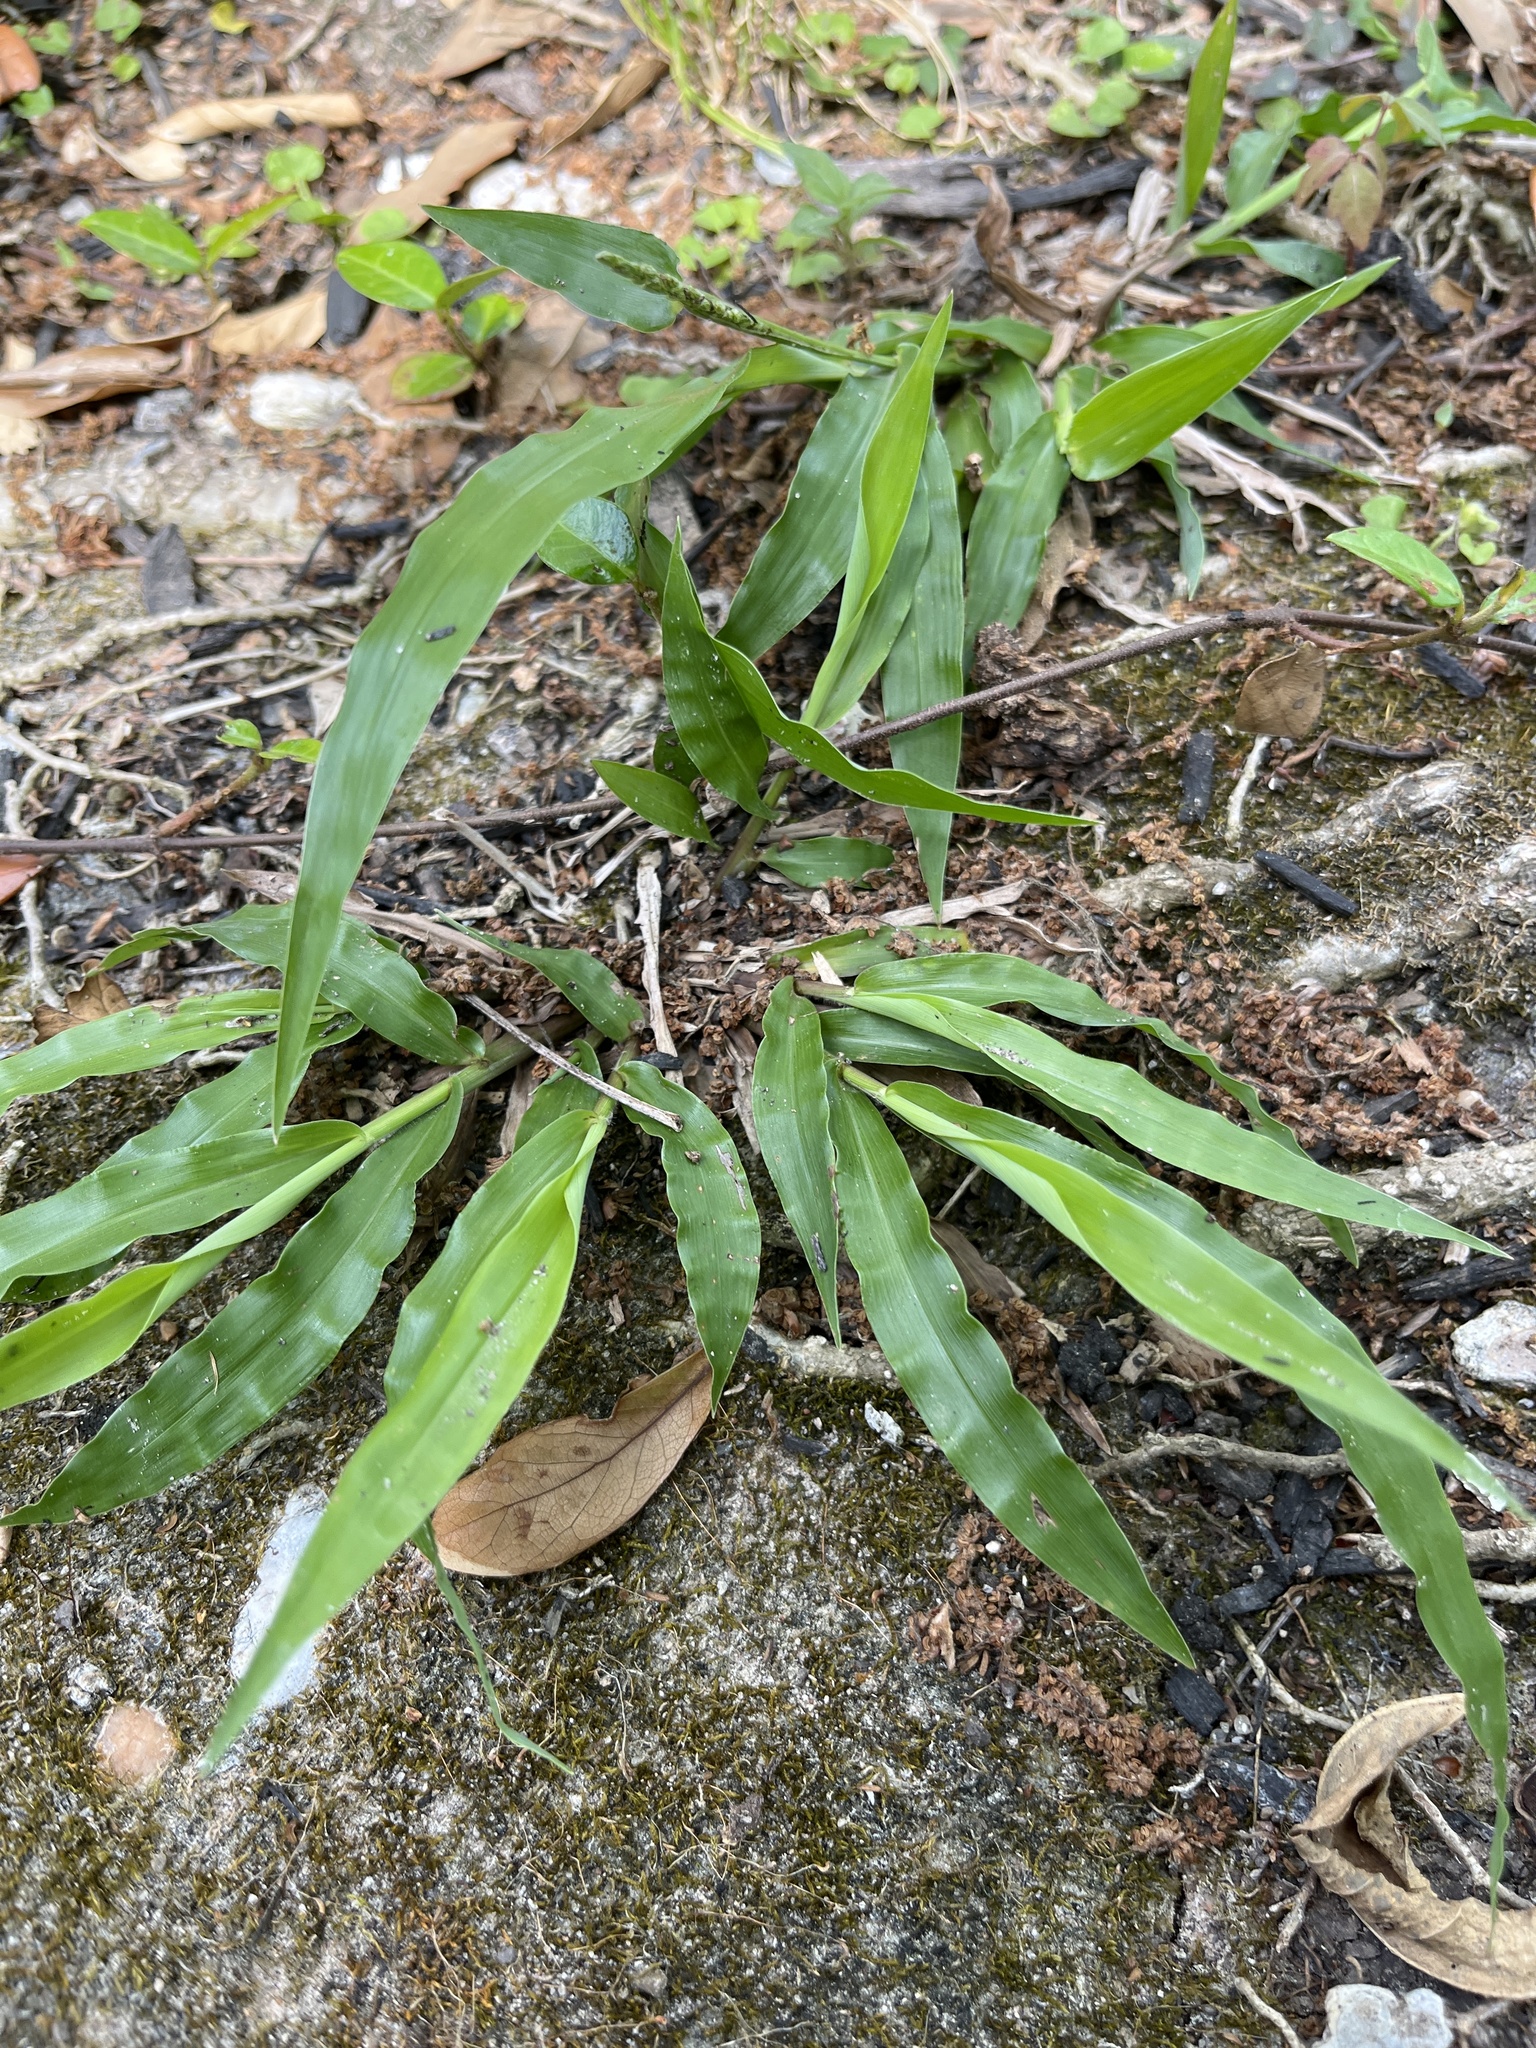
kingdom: Plantae
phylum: Tracheophyta
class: Liliopsida
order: Poales
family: Poaceae
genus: Paspalum
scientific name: Paspalum langei
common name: Rusty-seed paspalum
